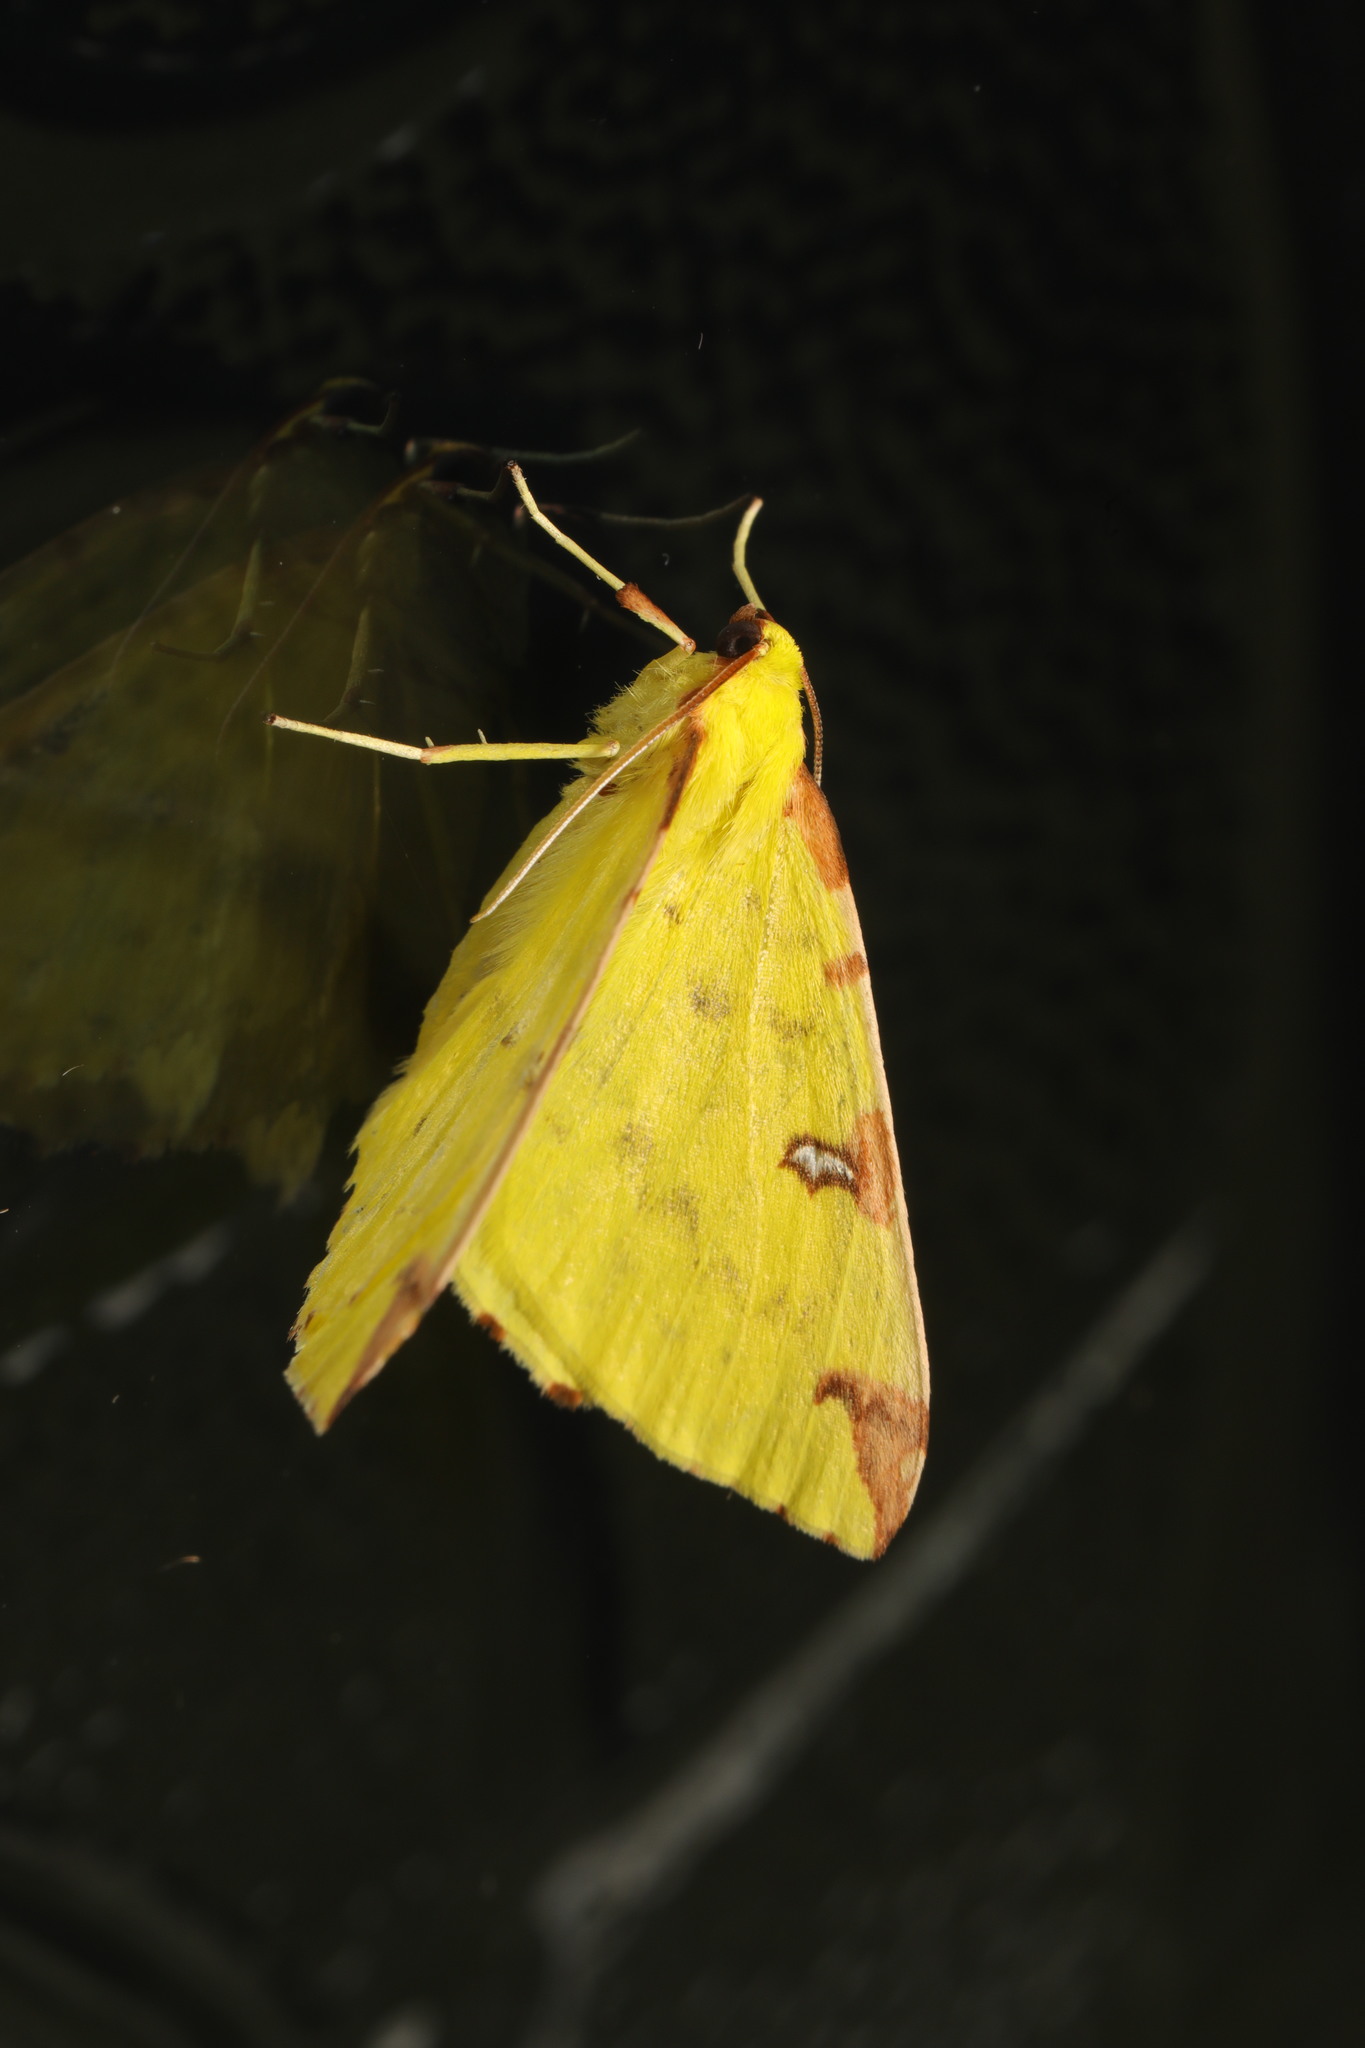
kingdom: Animalia
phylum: Arthropoda
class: Insecta
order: Lepidoptera
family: Geometridae
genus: Opisthograptis
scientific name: Opisthograptis luteolata
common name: Brimstone moth
